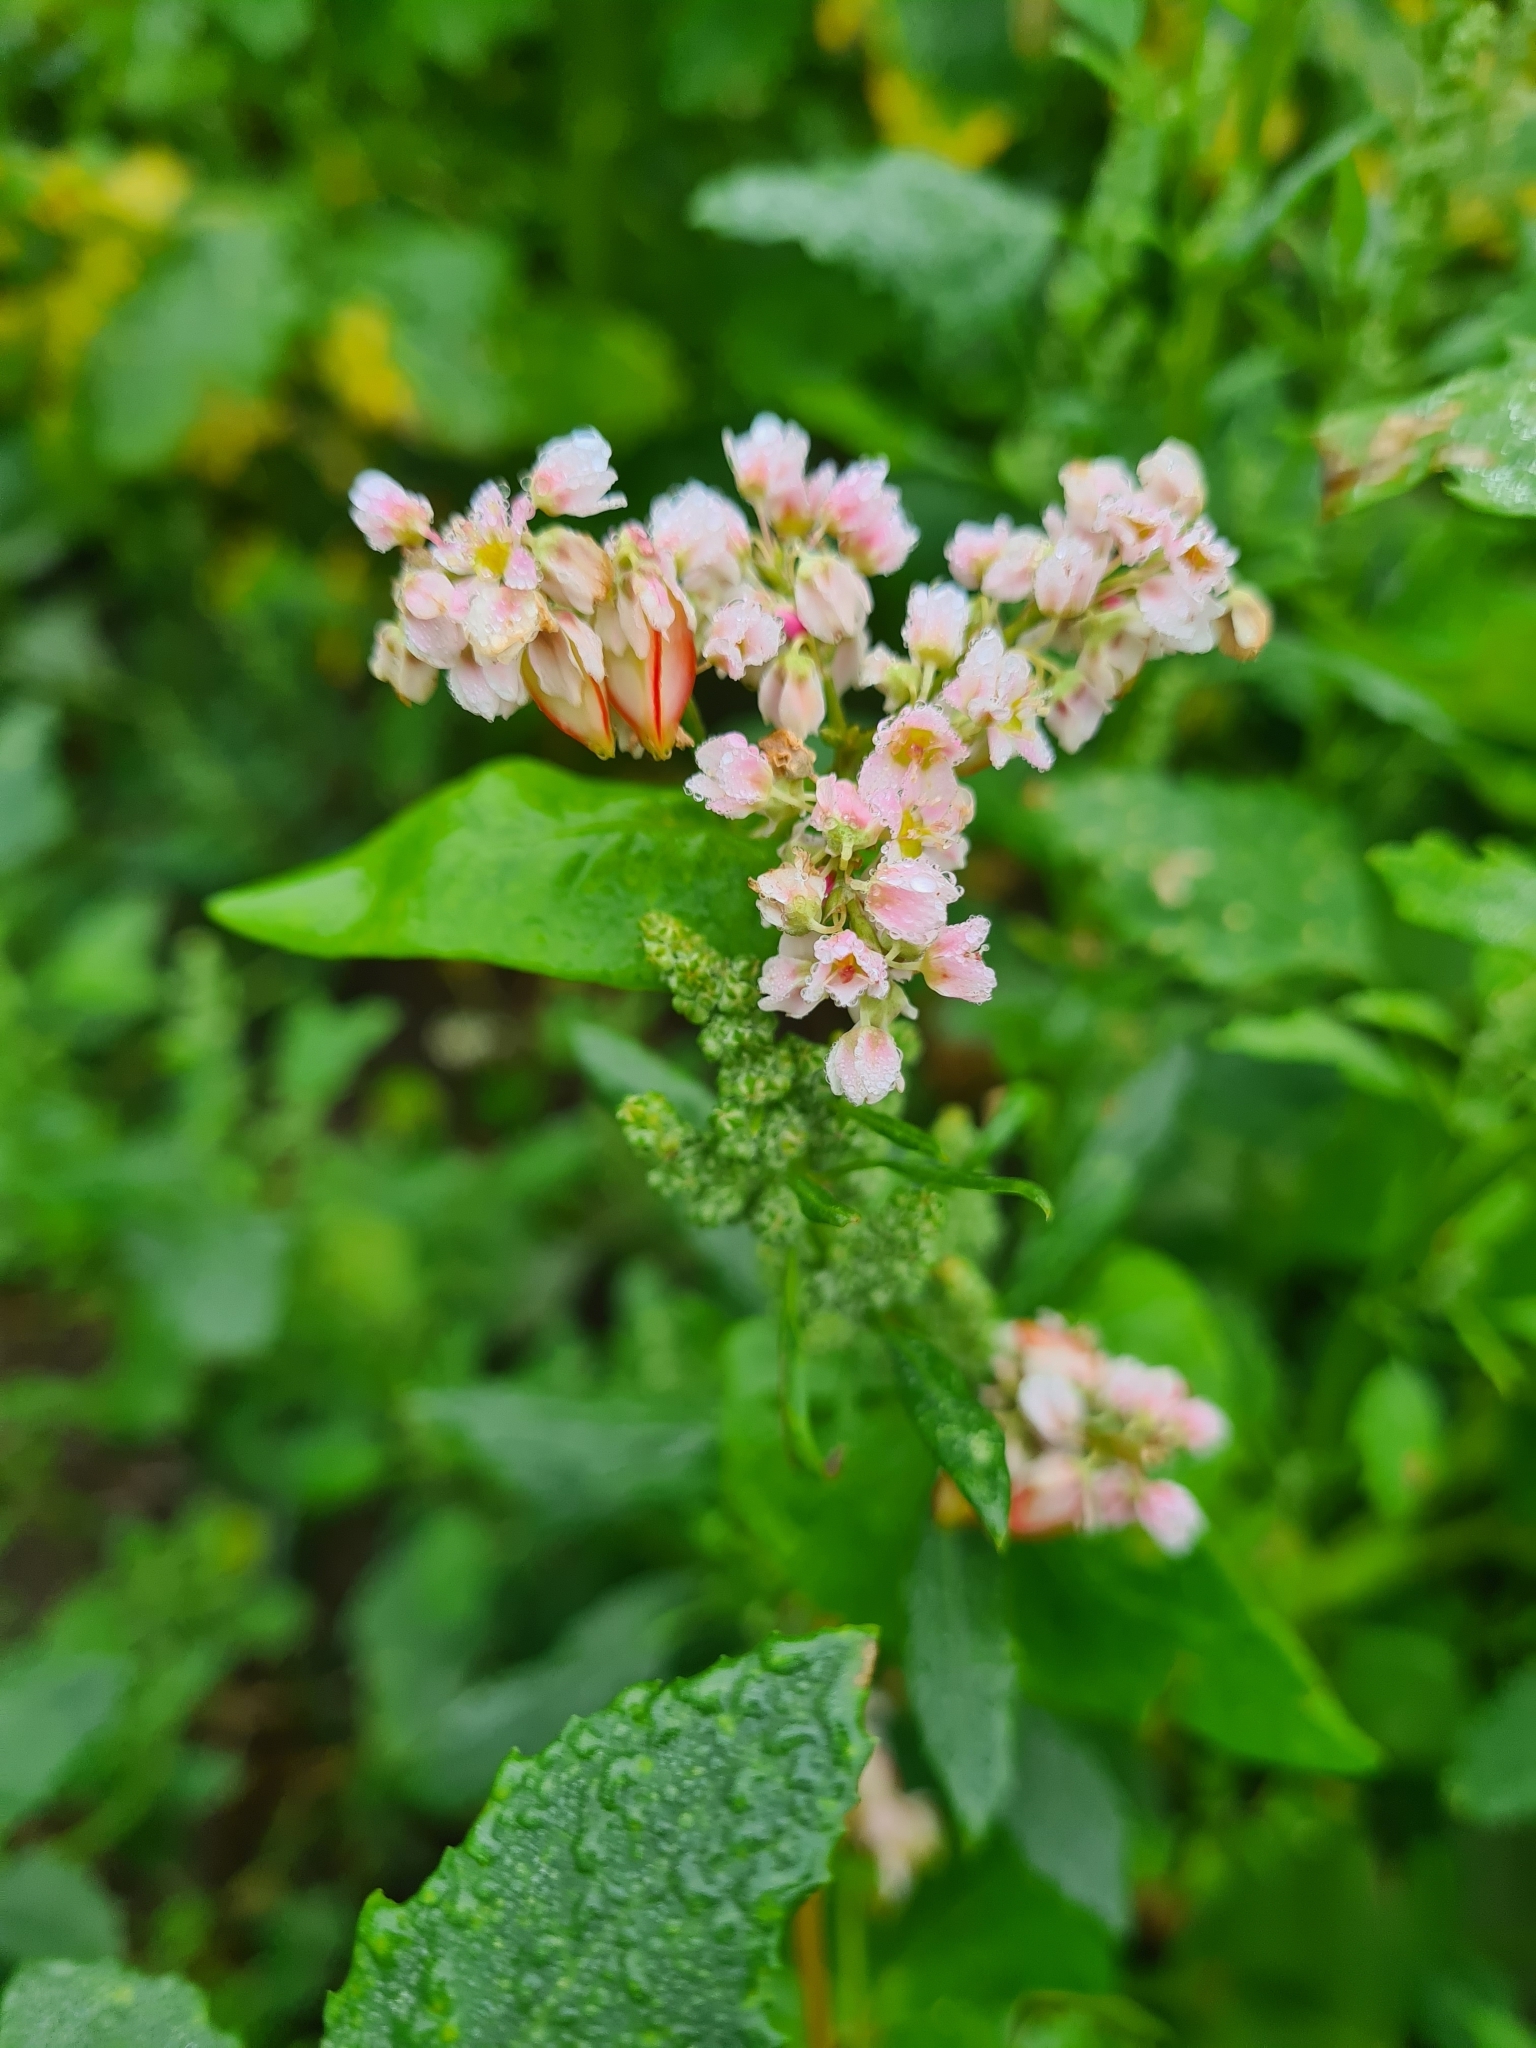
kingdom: Plantae
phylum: Tracheophyta
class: Magnoliopsida
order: Caryophyllales
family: Polygonaceae
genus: Fagopyrum
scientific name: Fagopyrum esculentum
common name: Buckwheat
